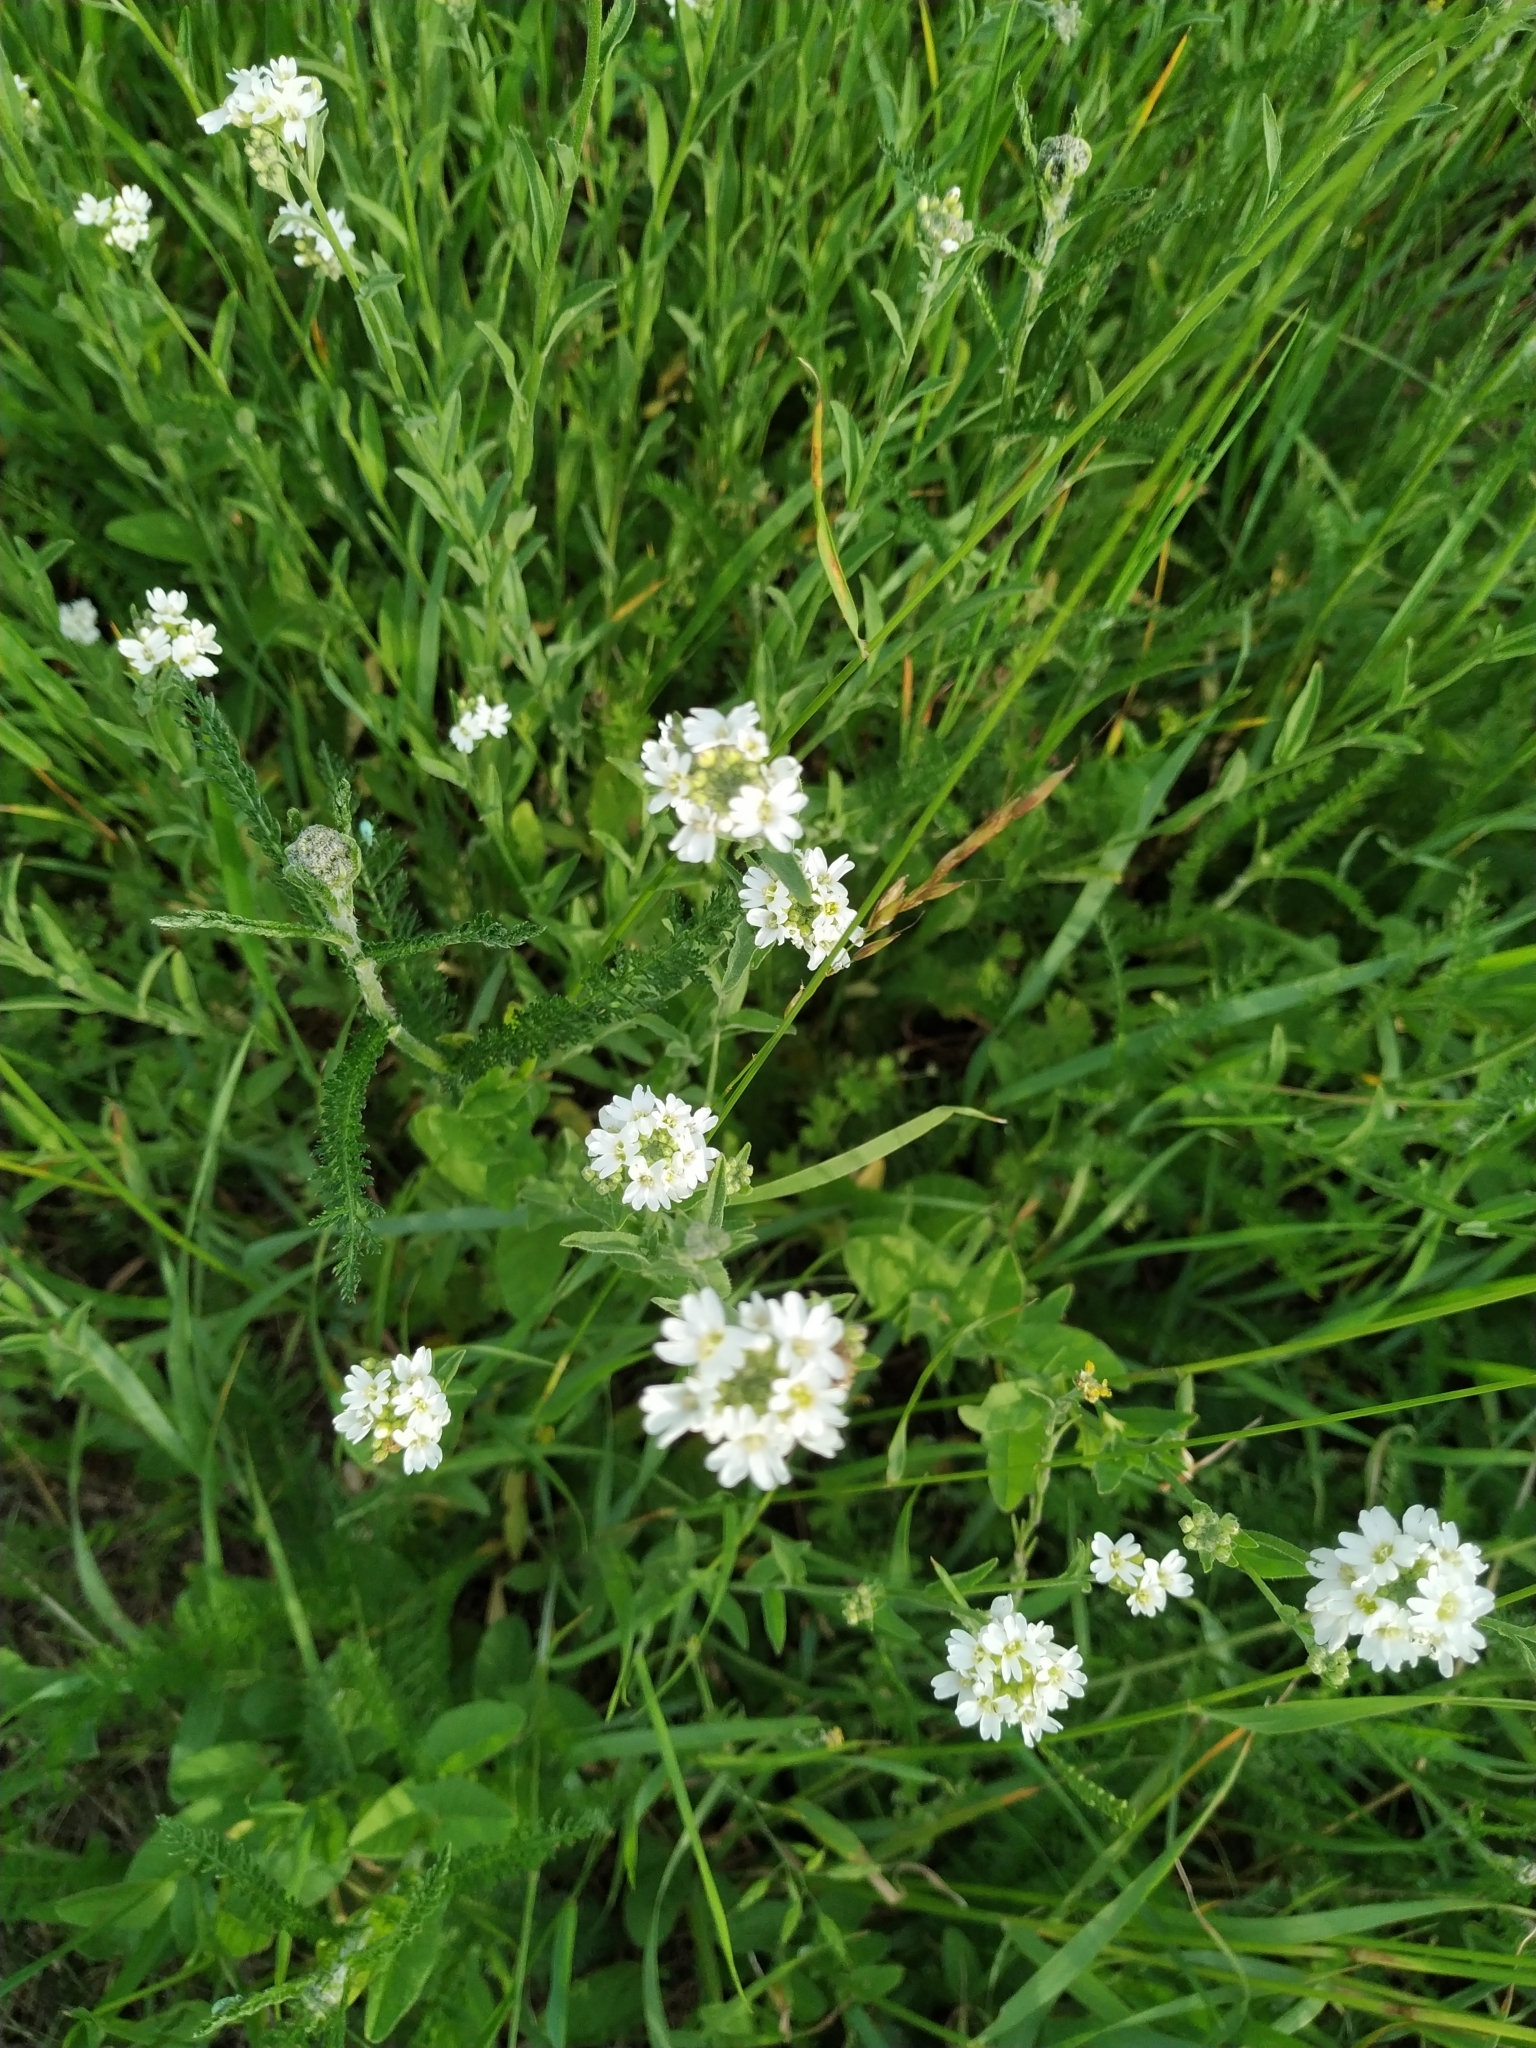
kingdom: Plantae
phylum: Tracheophyta
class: Magnoliopsida
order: Brassicales
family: Brassicaceae
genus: Berteroa
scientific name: Berteroa incana
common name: Hoary alison
